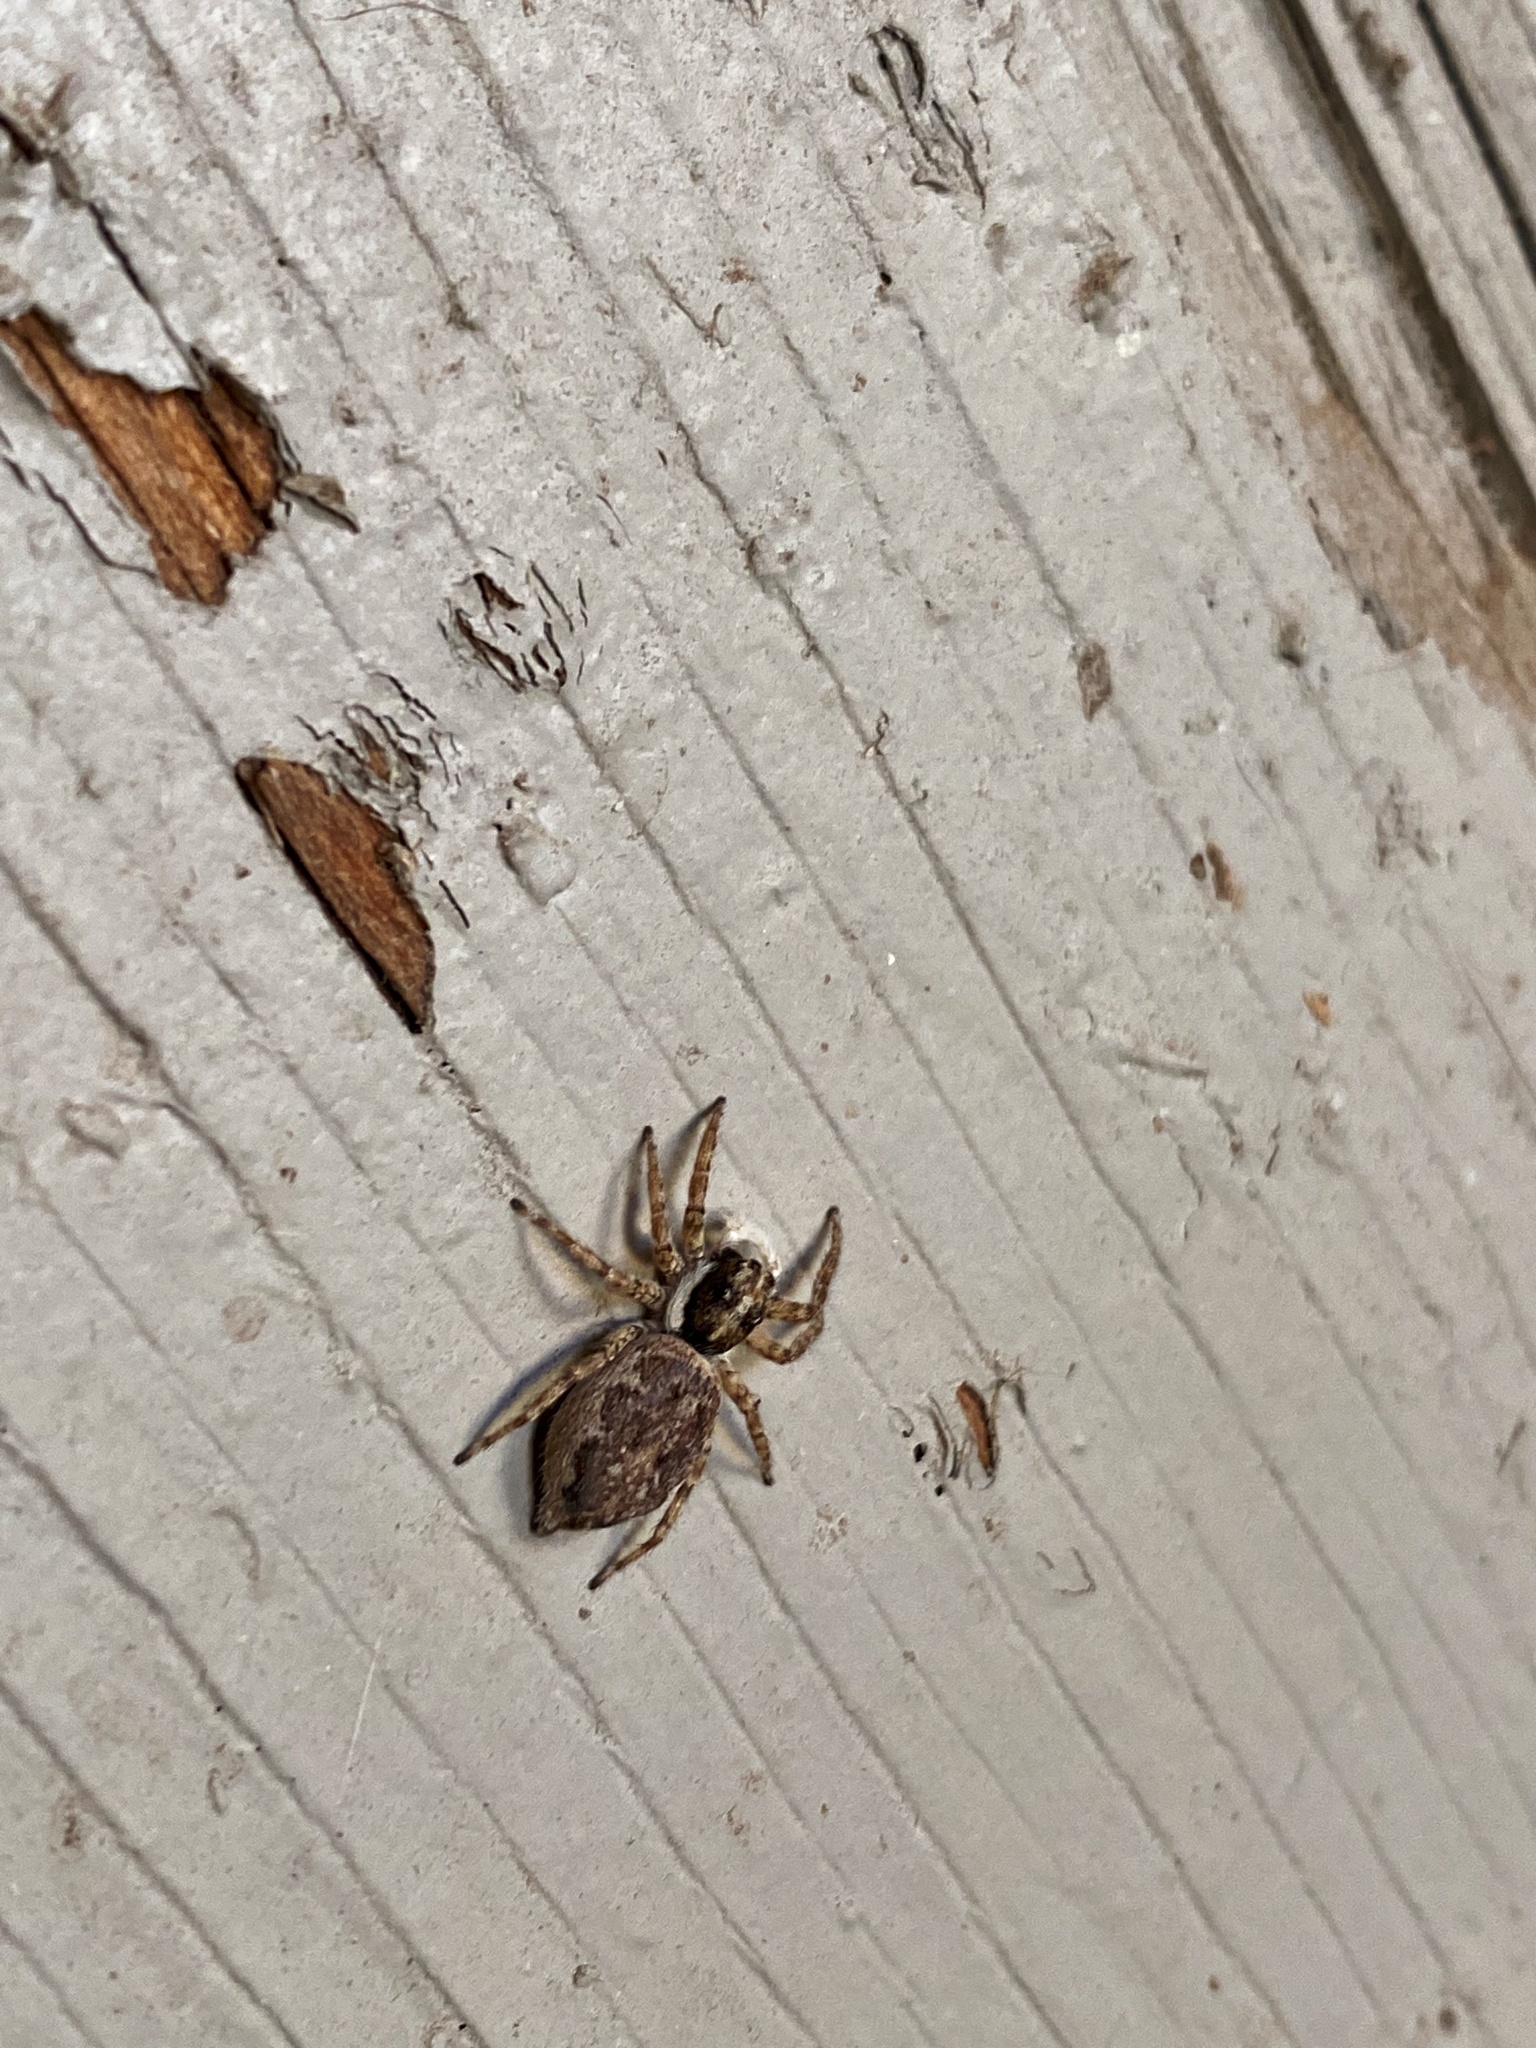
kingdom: Animalia
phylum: Arthropoda
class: Arachnida
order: Araneae
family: Salticidae
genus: Menemerus
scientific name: Menemerus semilimbatus
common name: Jumping spider
